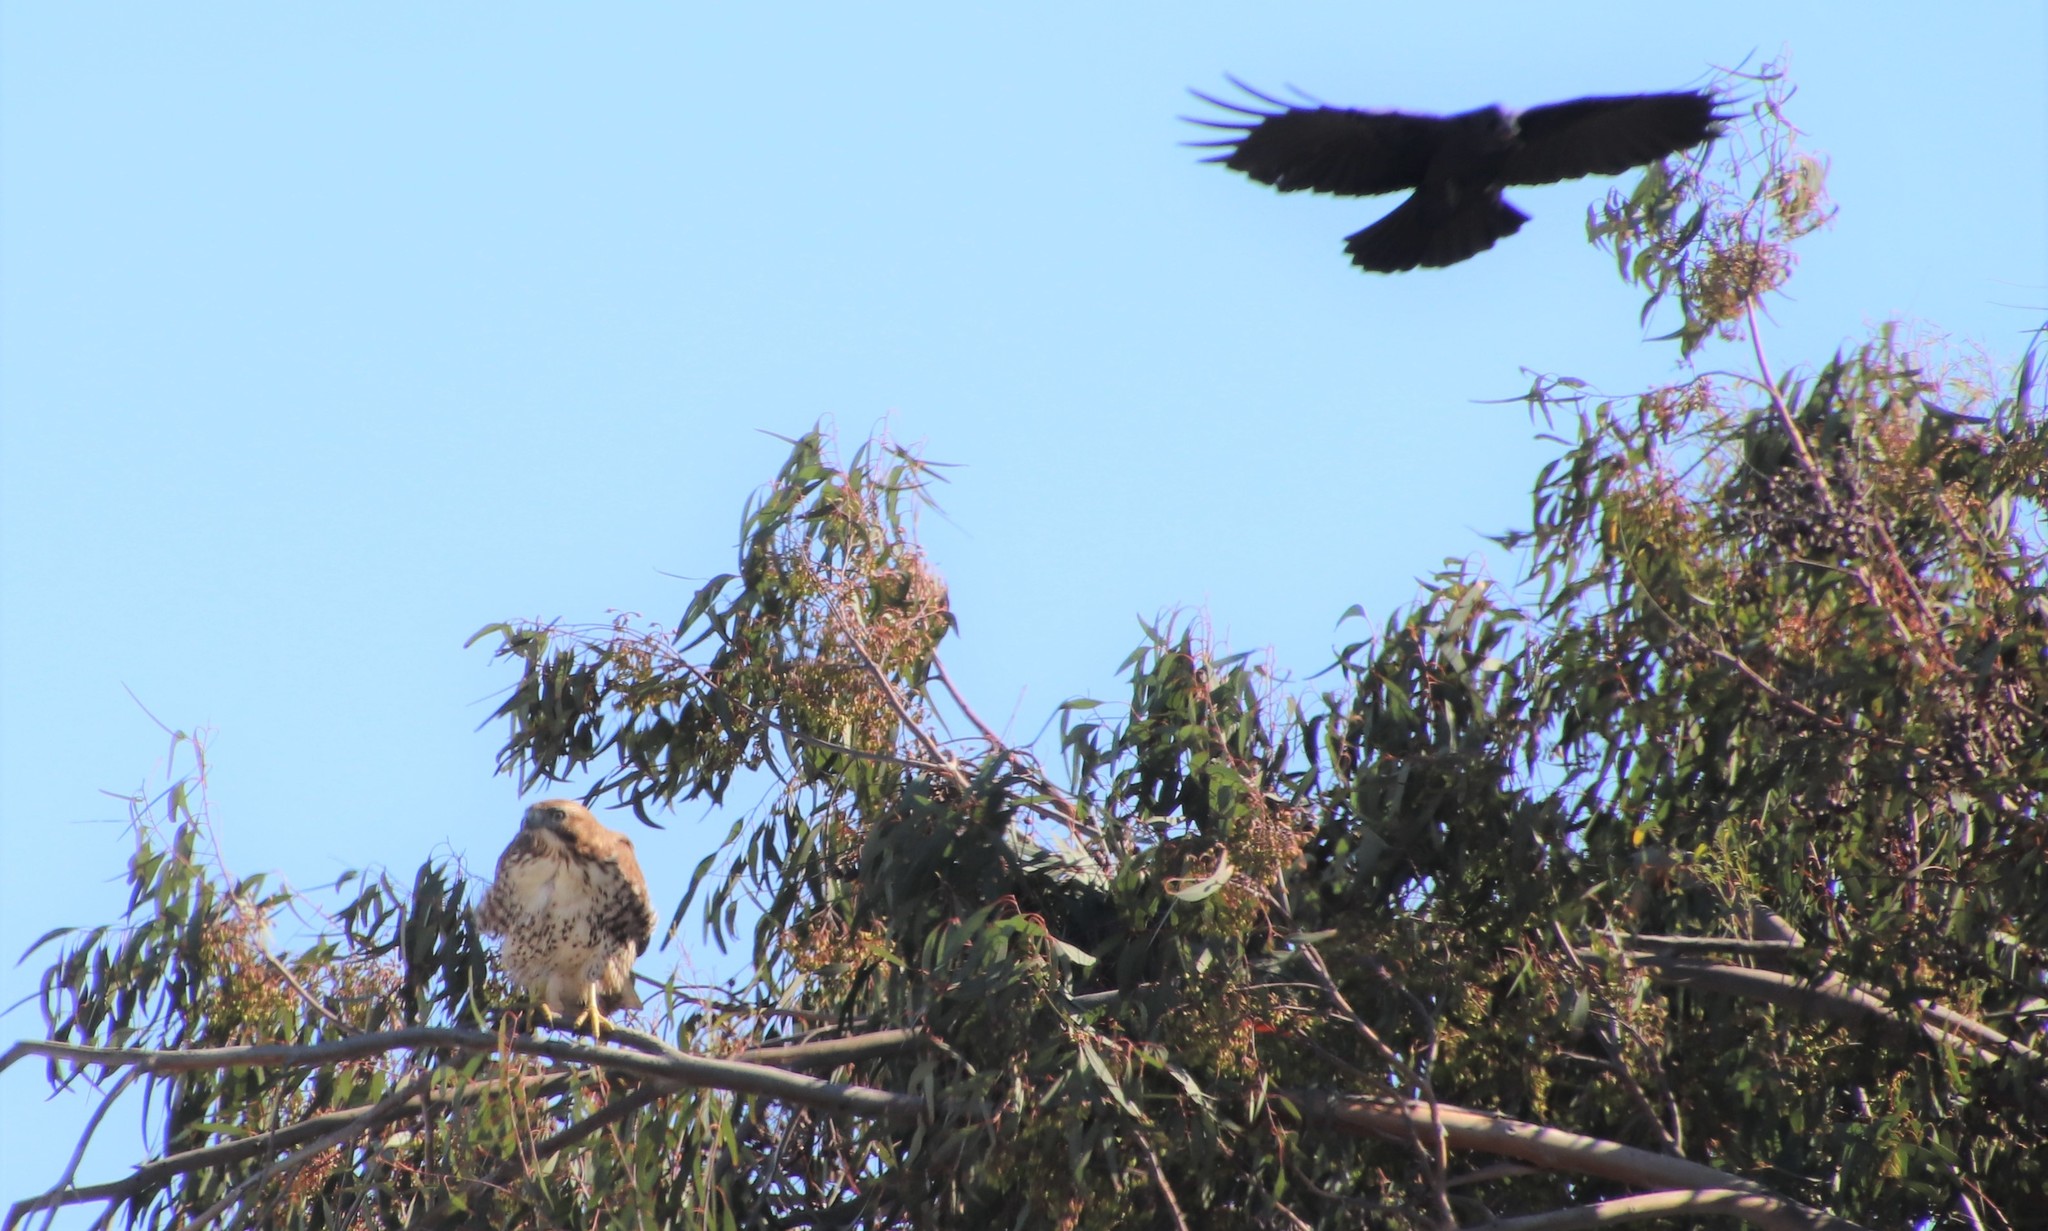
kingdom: Animalia
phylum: Chordata
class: Aves
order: Passeriformes
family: Corvidae
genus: Corvus
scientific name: Corvus brachyrhynchos
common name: American crow
